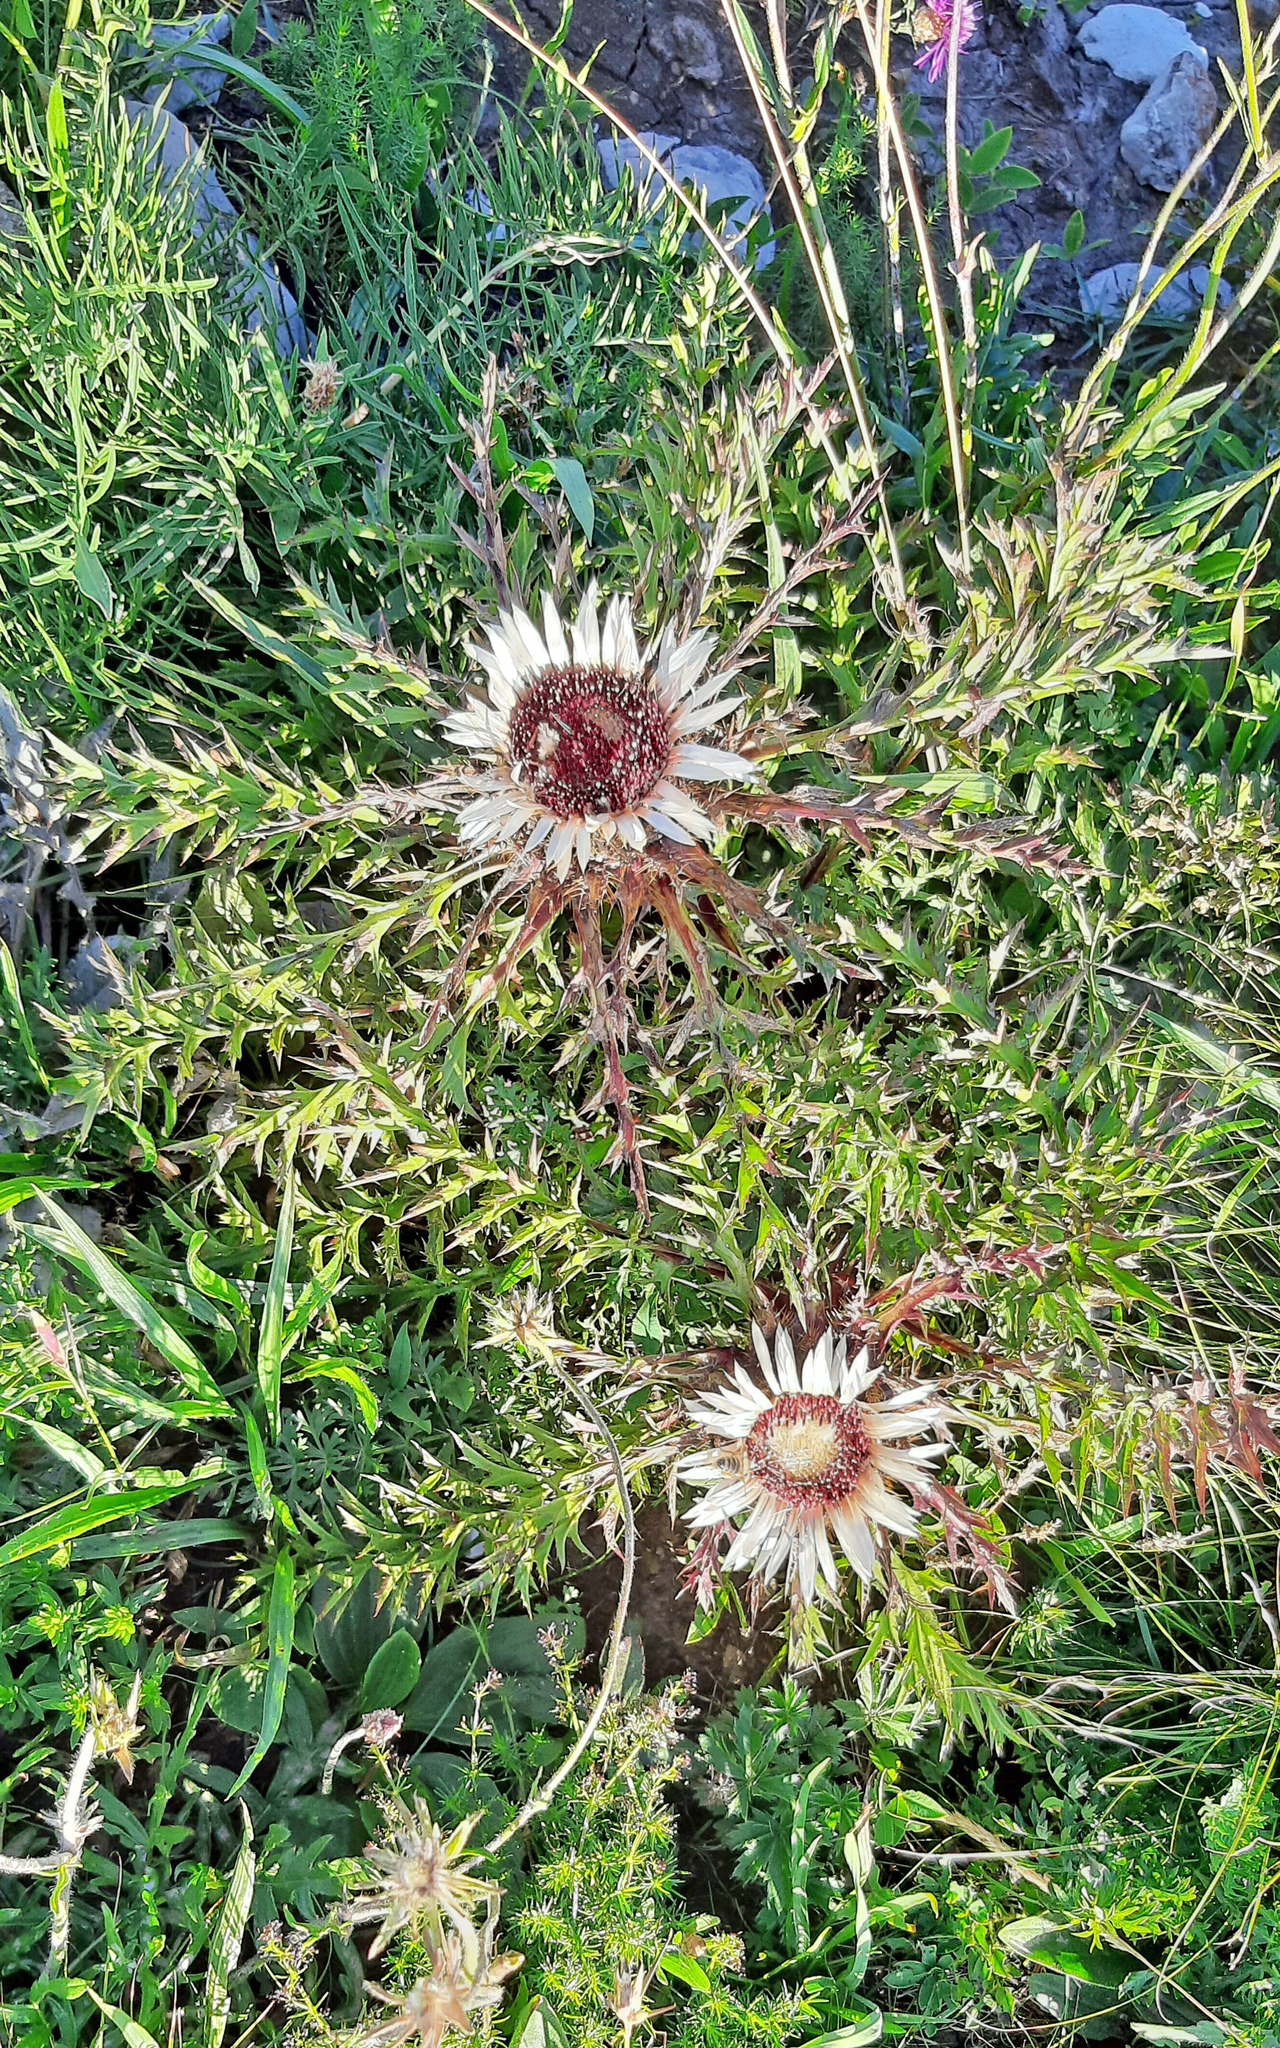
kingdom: Plantae
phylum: Tracheophyta
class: Magnoliopsida
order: Asterales
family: Asteraceae
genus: Carlina
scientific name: Carlina acaulis
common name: Stemless carline thistle
